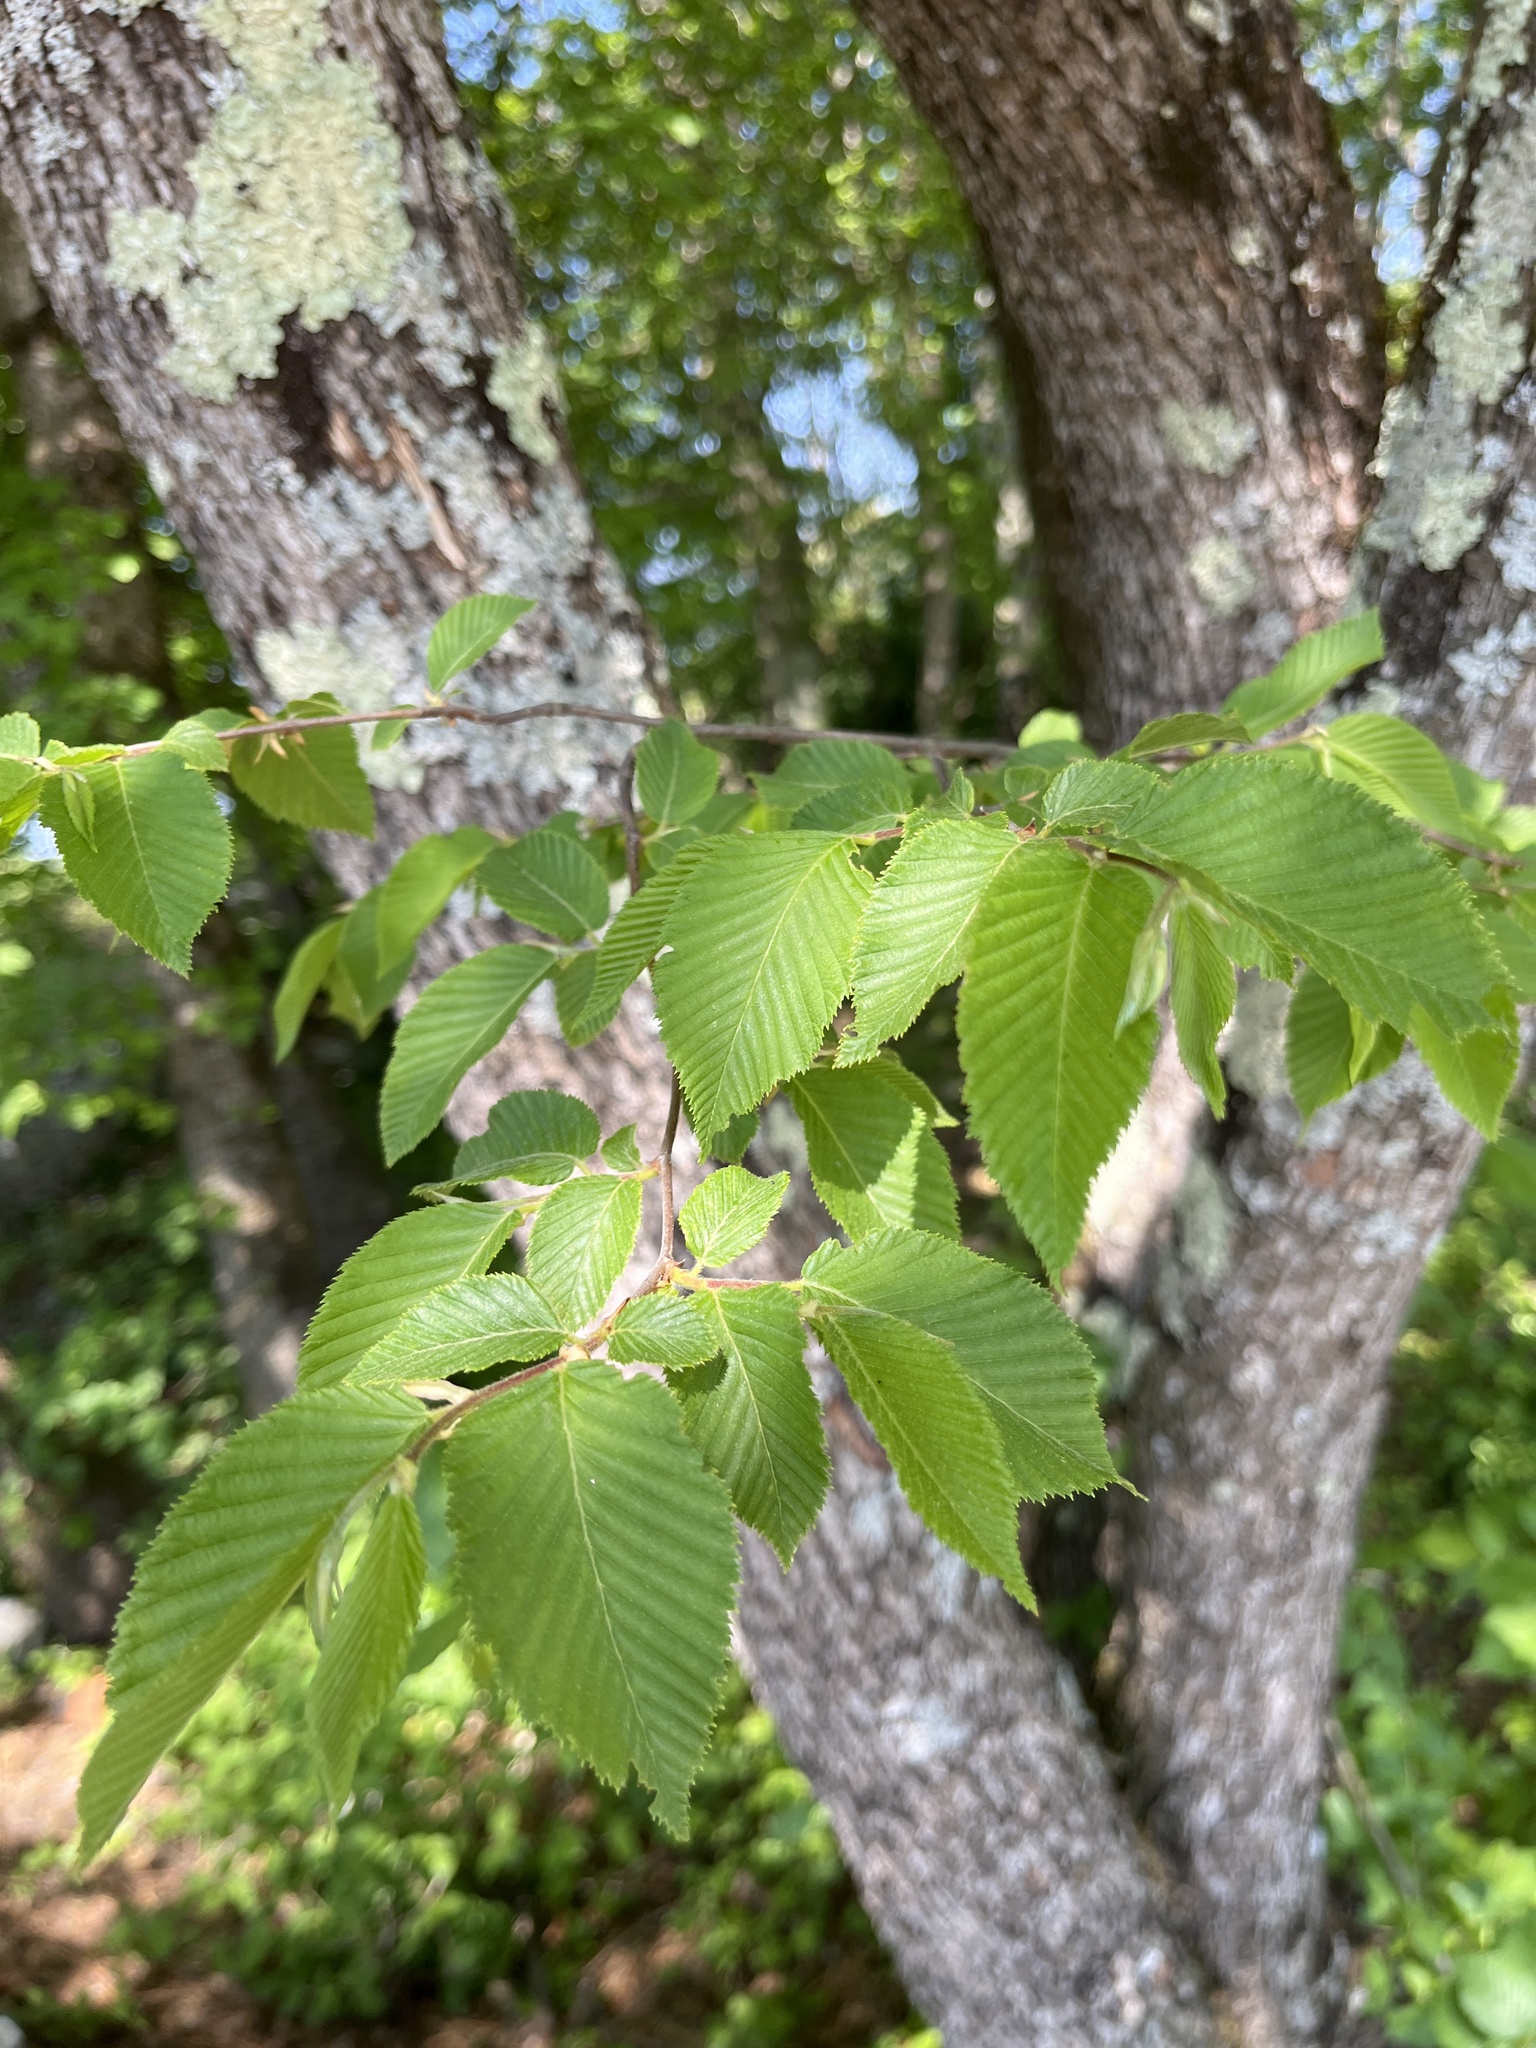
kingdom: Plantae
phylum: Tracheophyta
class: Magnoliopsida
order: Fagales
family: Betulaceae
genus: Ostrya
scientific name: Ostrya carpinifolia
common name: European hop-hornbeam
